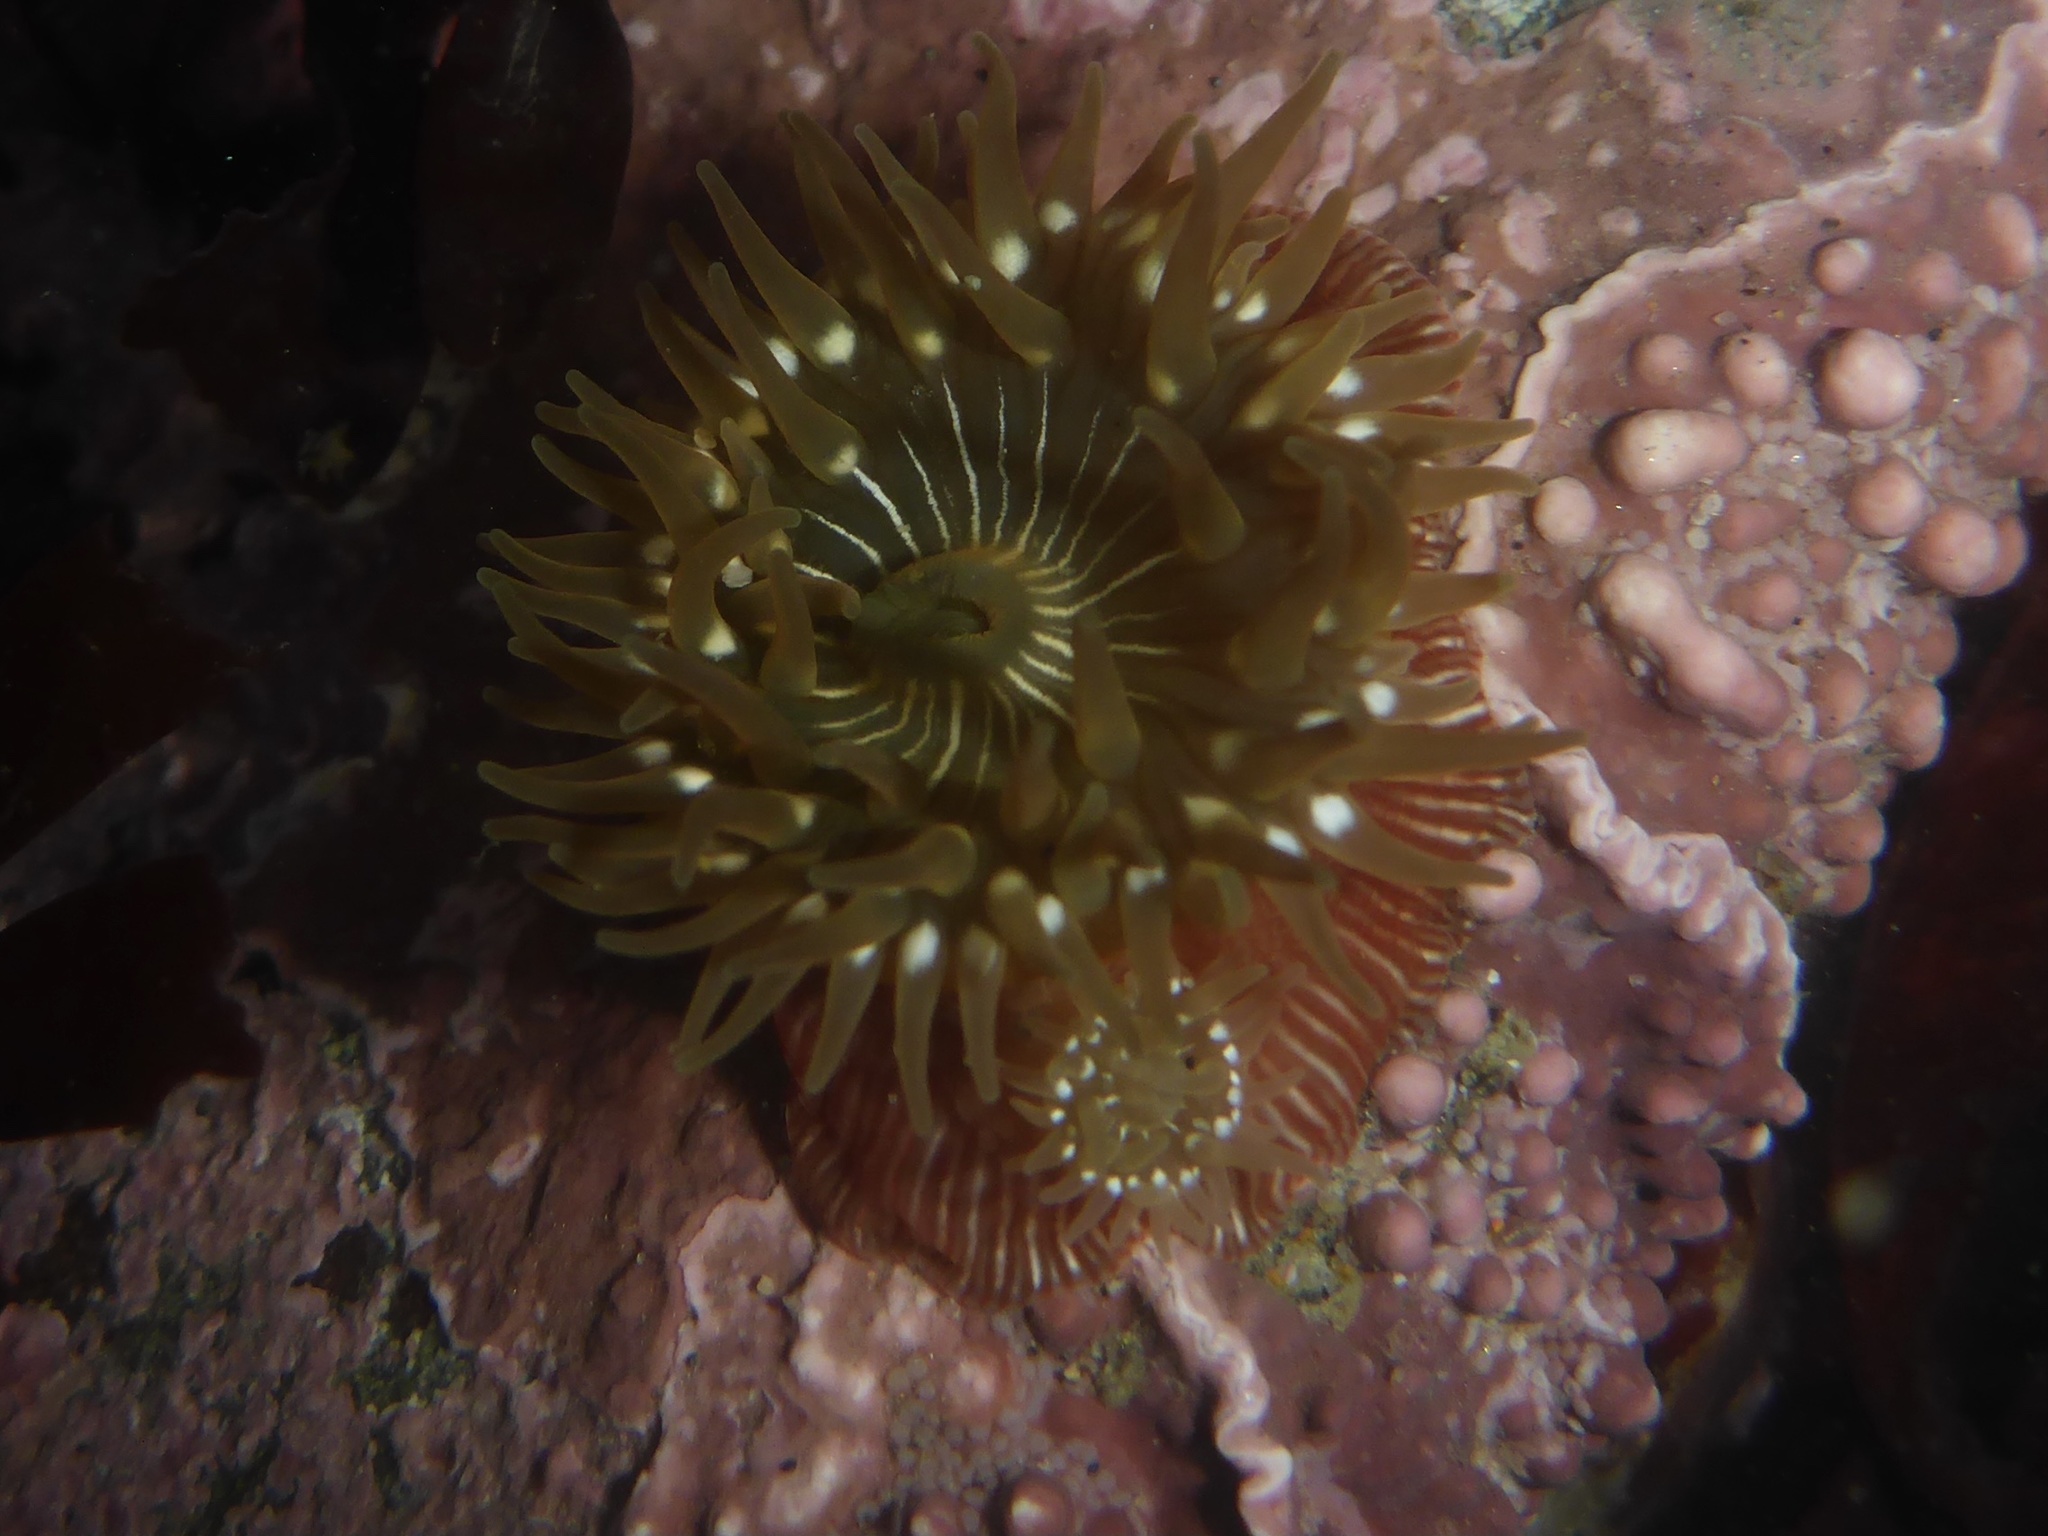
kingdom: Animalia
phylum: Cnidaria
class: Anthozoa
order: Actiniaria
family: Actiniidae
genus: Epiactis
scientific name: Epiactis prolifera
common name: Brooding anemone
